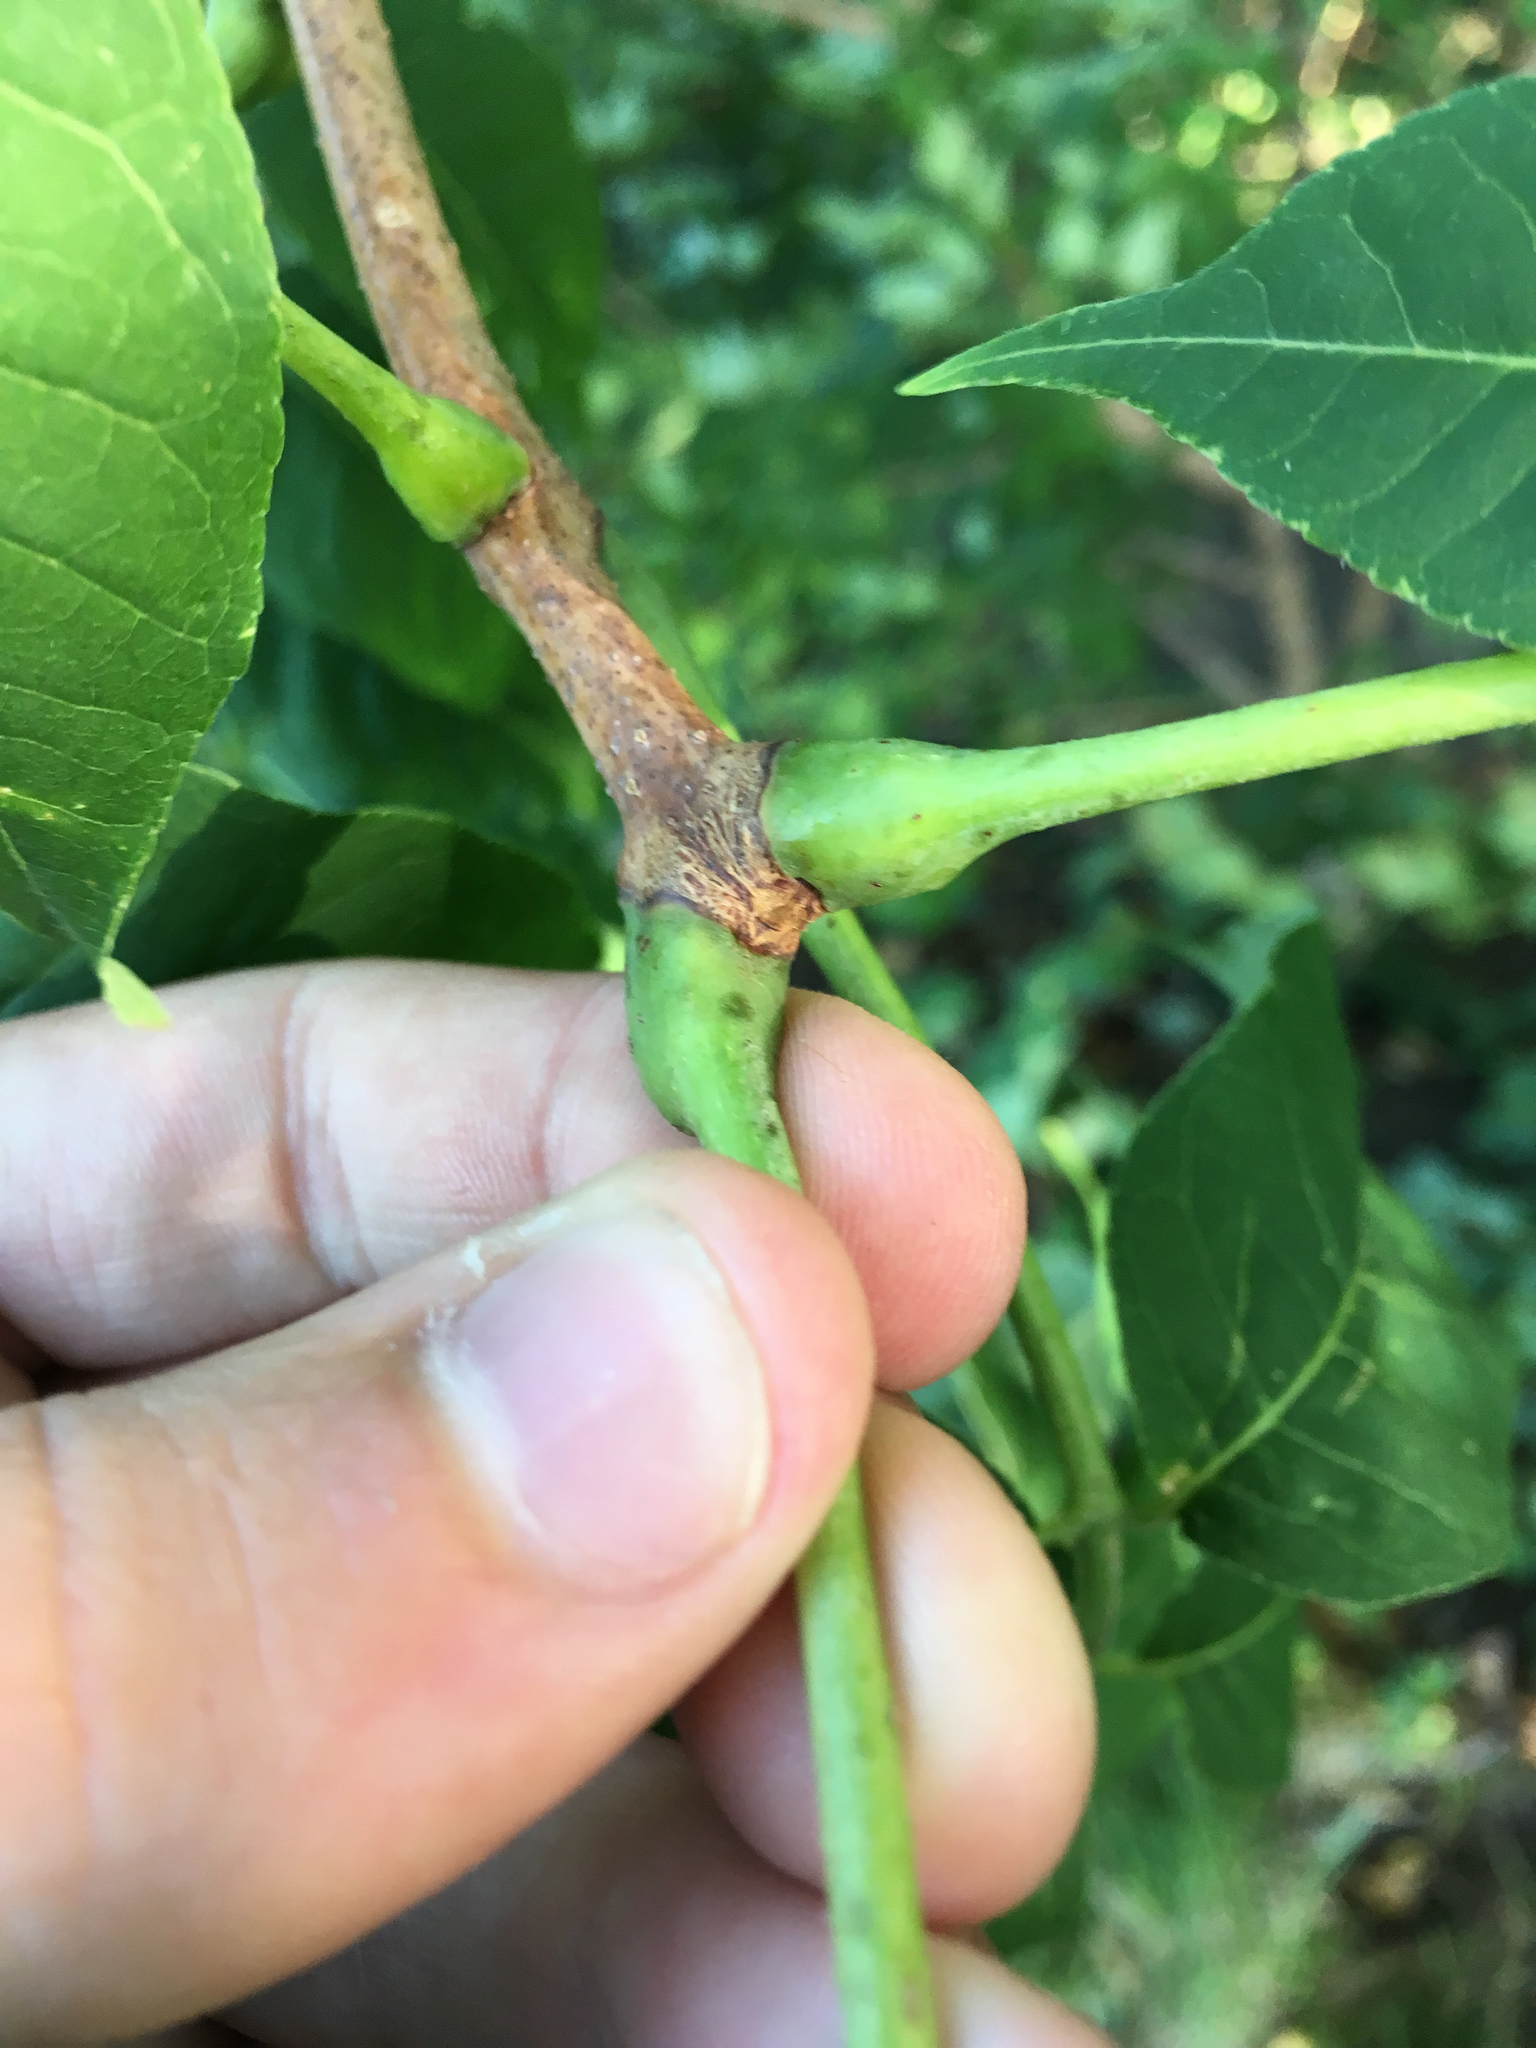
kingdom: Plantae
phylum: Tracheophyta
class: Magnoliopsida
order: Sapindales
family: Rutaceae
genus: Phellodendron
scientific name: Phellodendron amurense
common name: Amur corktree
